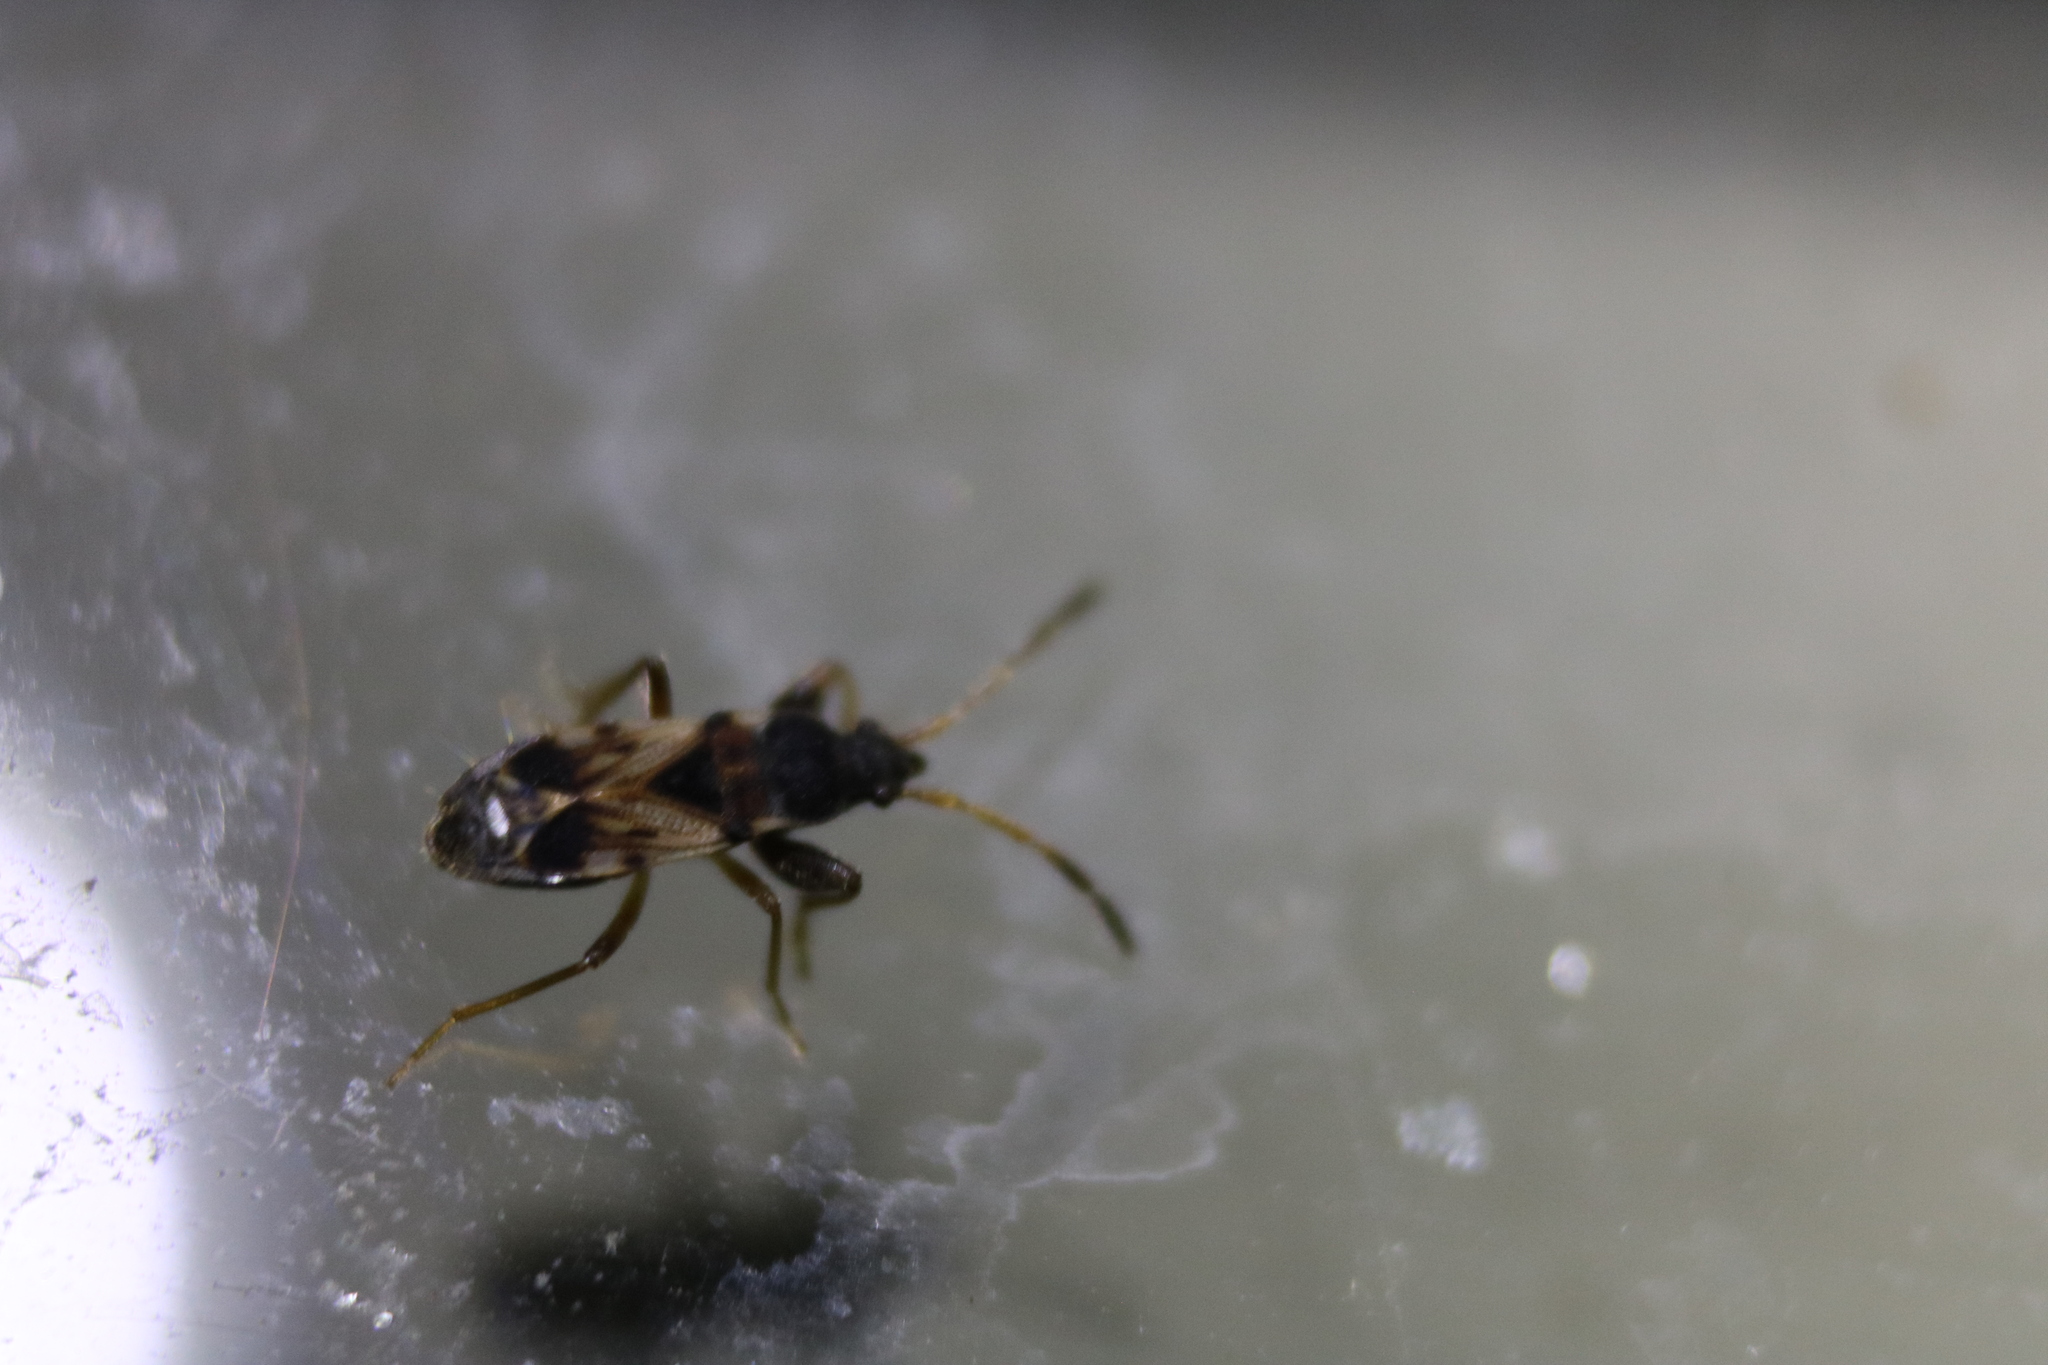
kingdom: Animalia
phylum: Arthropoda
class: Insecta
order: Hemiptera
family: Rhyparochromidae
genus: Scolopostethus
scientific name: Scolopostethus thomsoni
